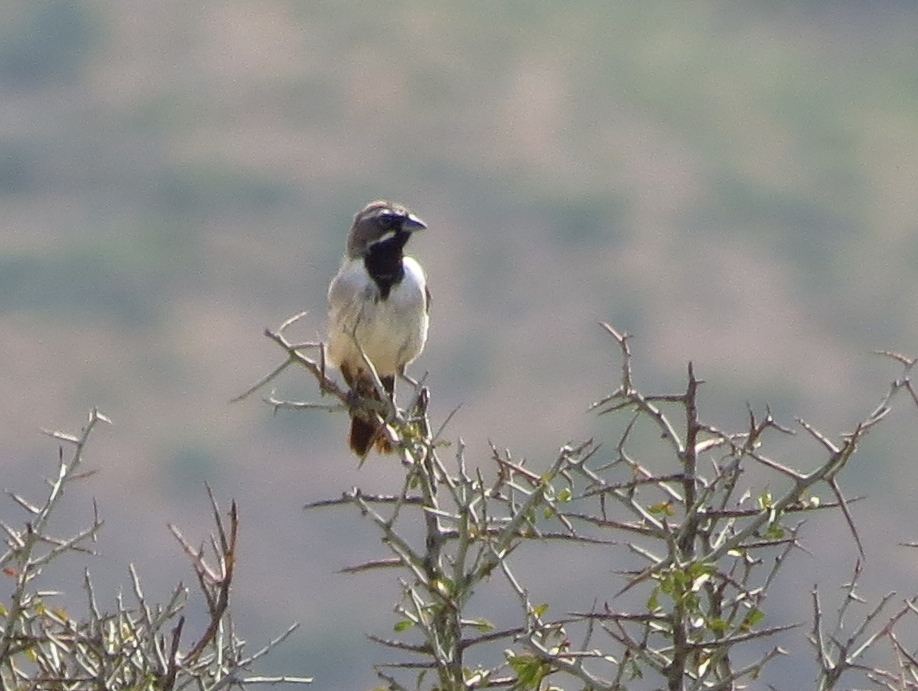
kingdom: Animalia
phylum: Chordata
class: Aves
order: Passeriformes
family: Passerellidae
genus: Amphispiza
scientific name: Amphispiza bilineata
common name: Black-throated sparrow
